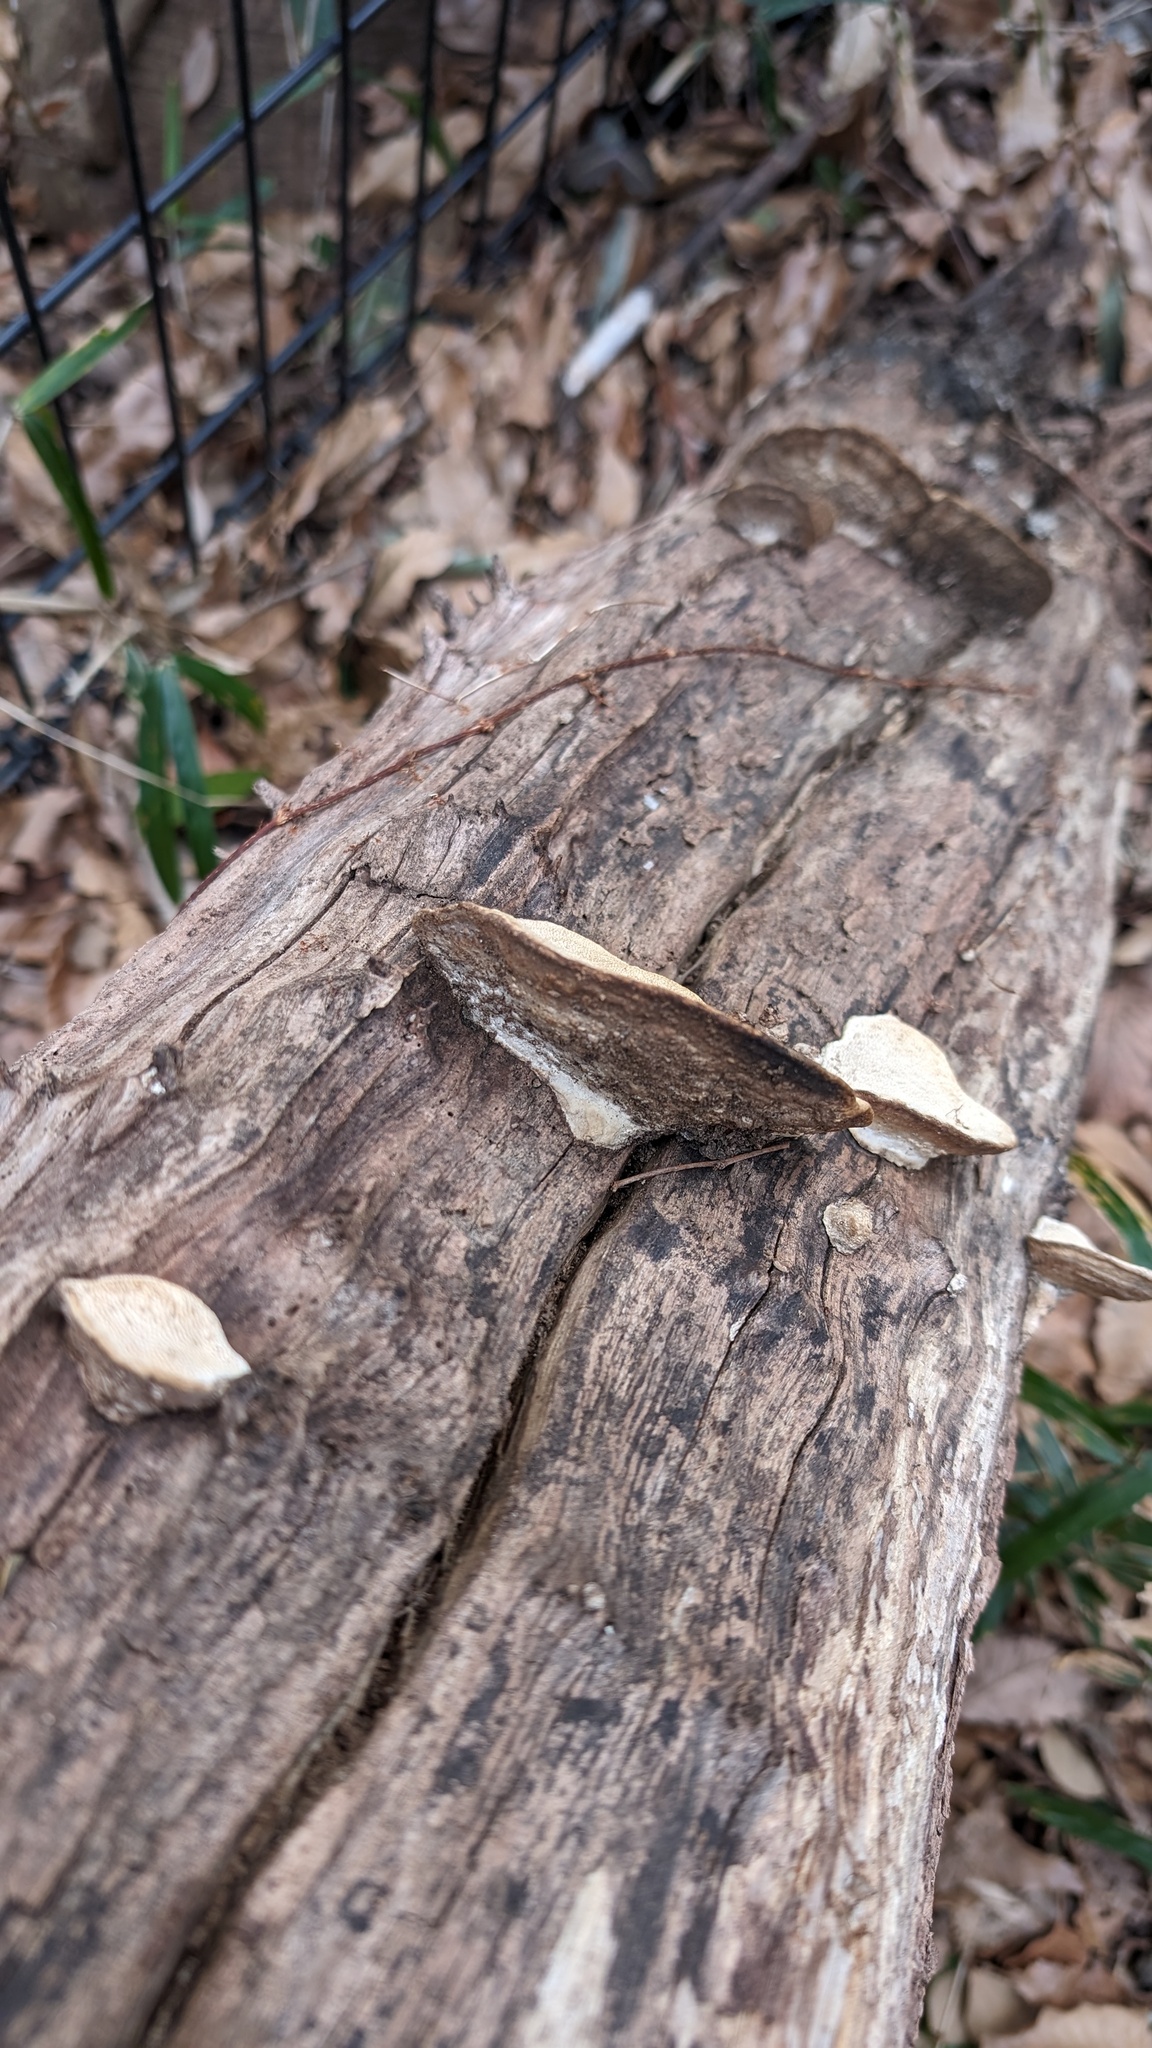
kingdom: Fungi
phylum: Basidiomycota
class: Agaricomycetes
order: Polyporales
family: Fomitopsidaceae
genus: Fomitopsis
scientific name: Fomitopsis
